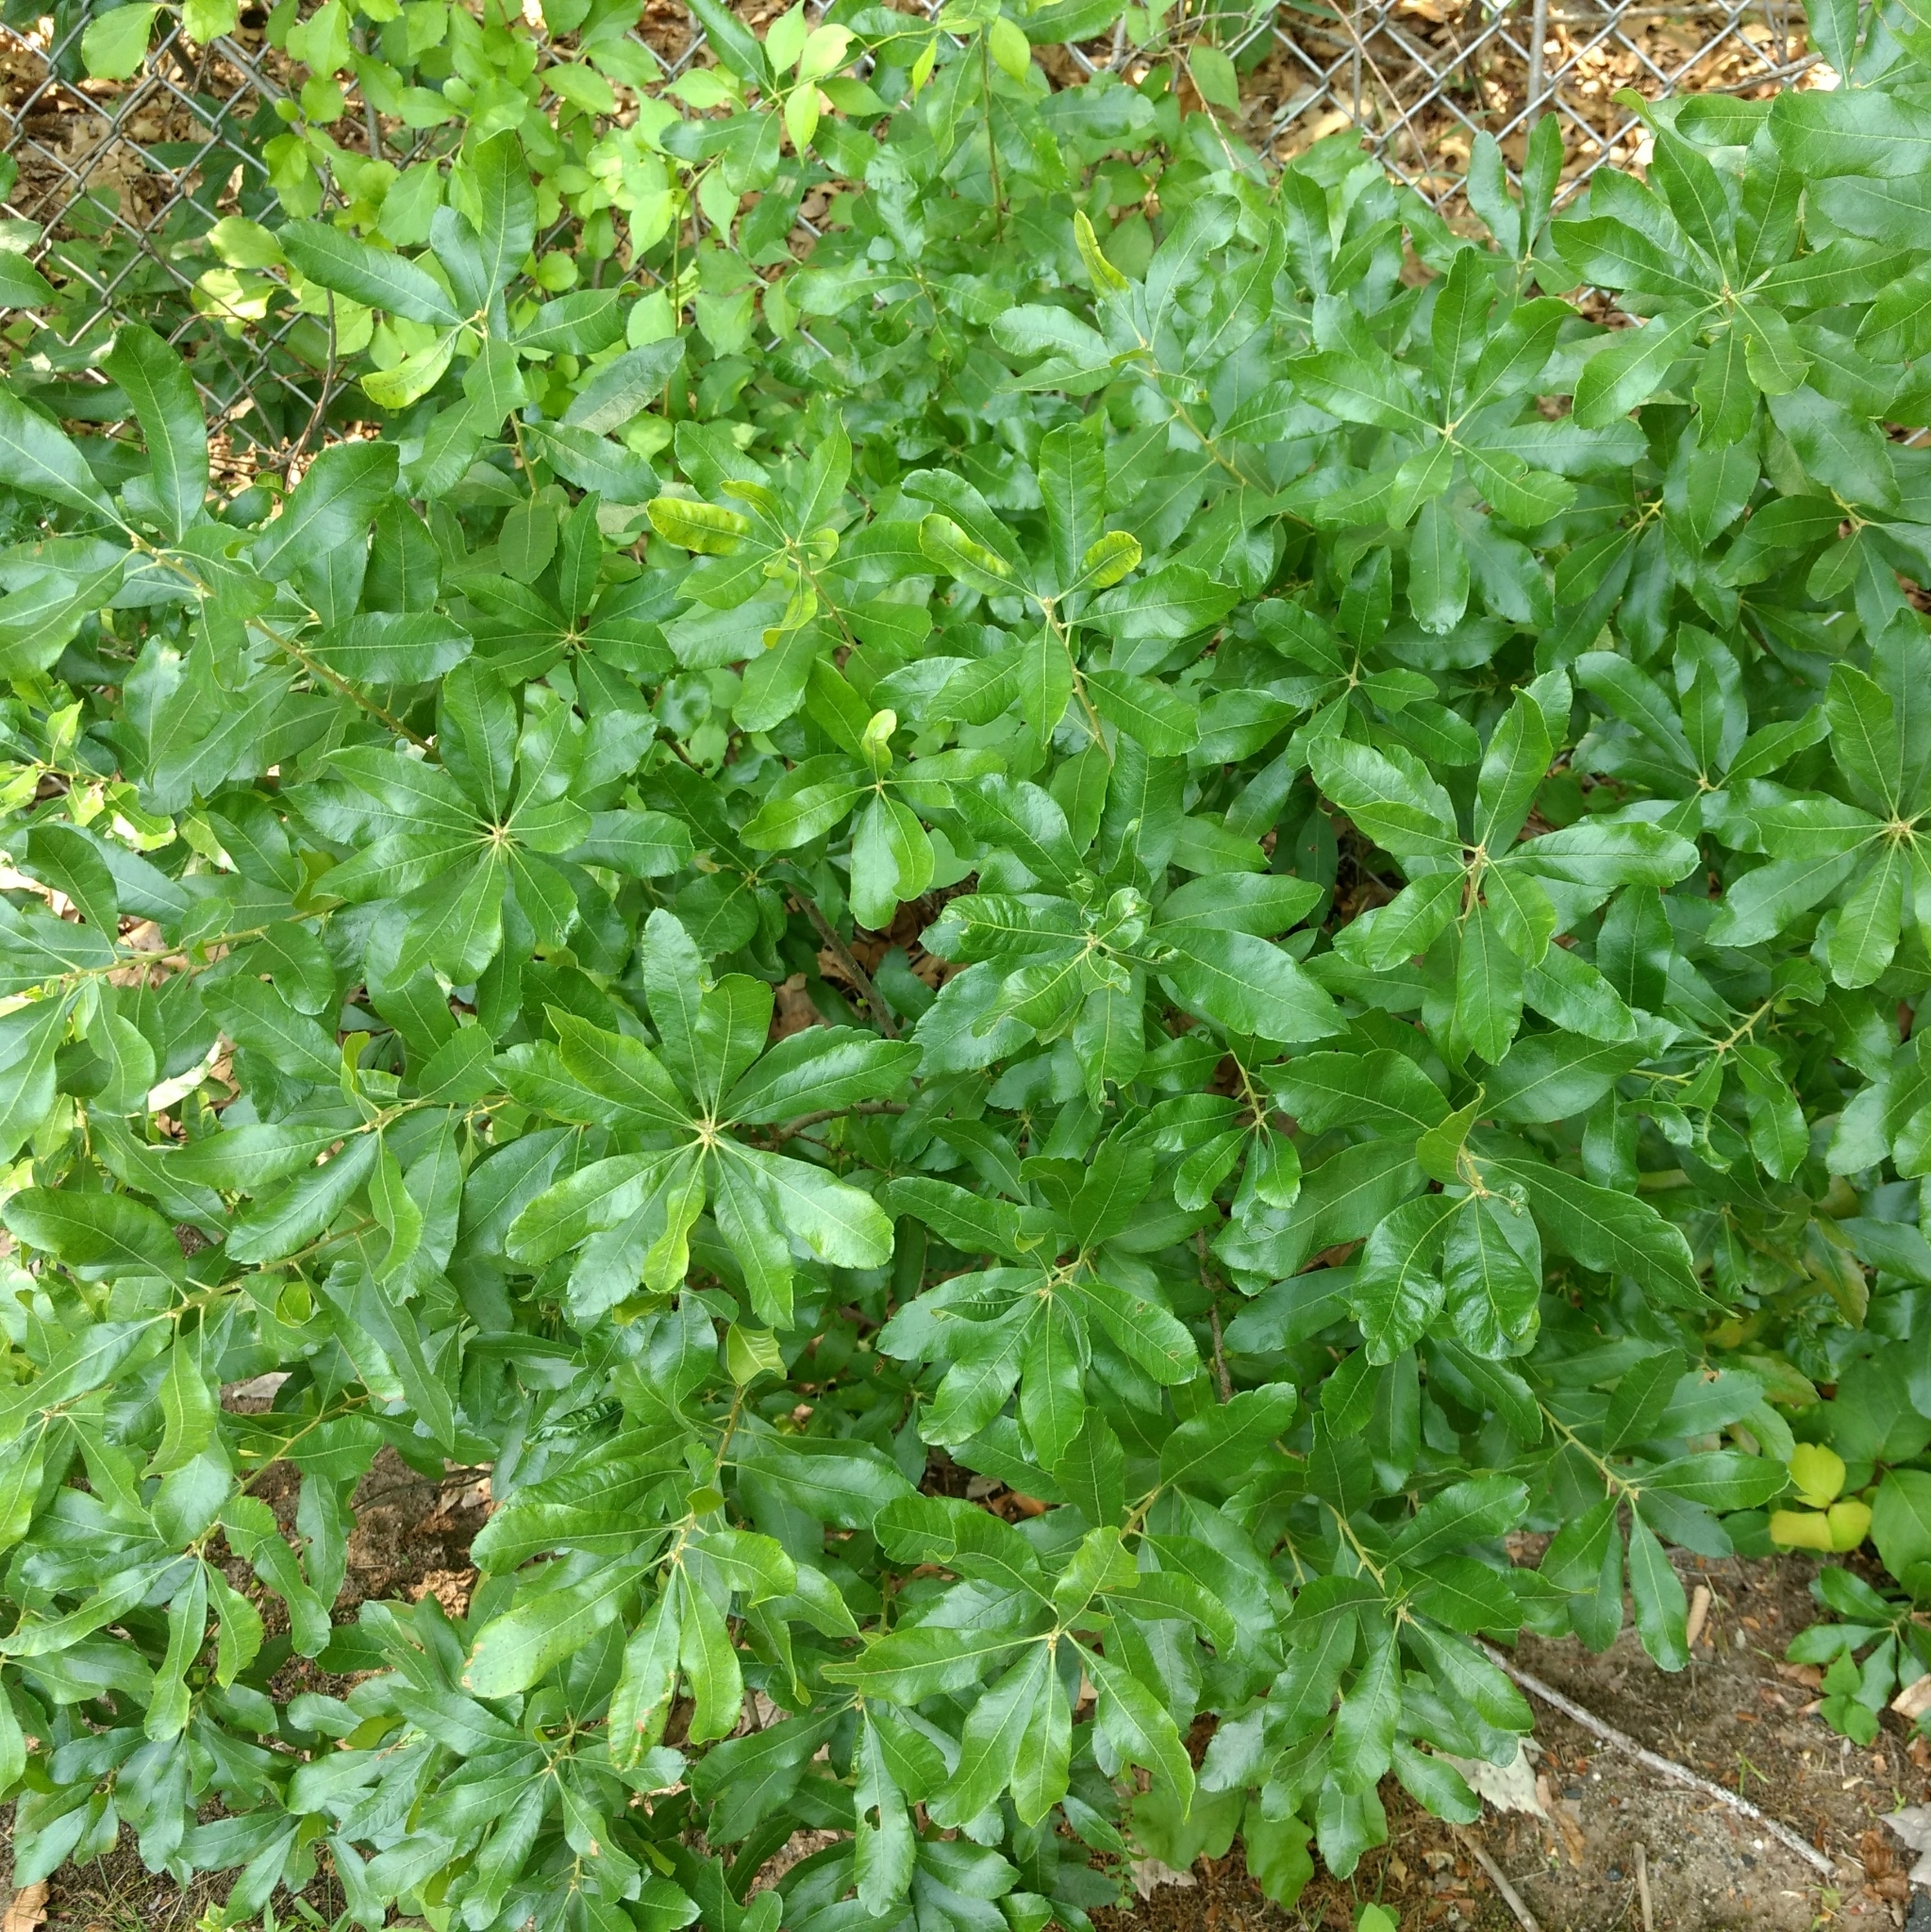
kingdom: Plantae
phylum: Tracheophyta
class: Magnoliopsida
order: Fagales
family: Myricaceae
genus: Morella
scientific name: Morella pensylvanica
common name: Northern bayberry
